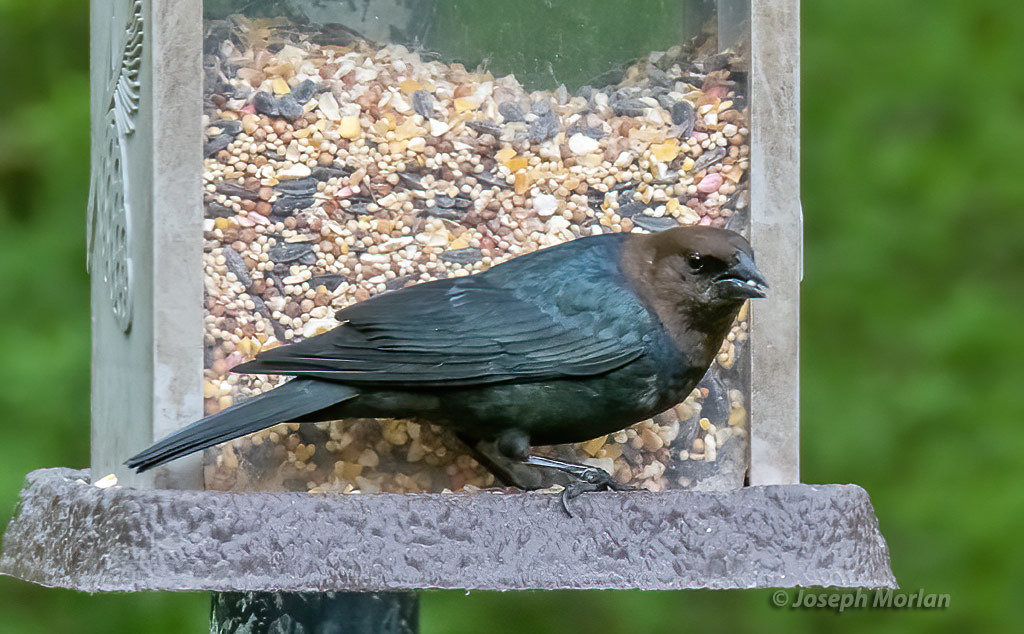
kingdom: Animalia
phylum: Chordata
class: Aves
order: Passeriformes
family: Icteridae
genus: Molothrus
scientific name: Molothrus ater
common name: Brown-headed cowbird
